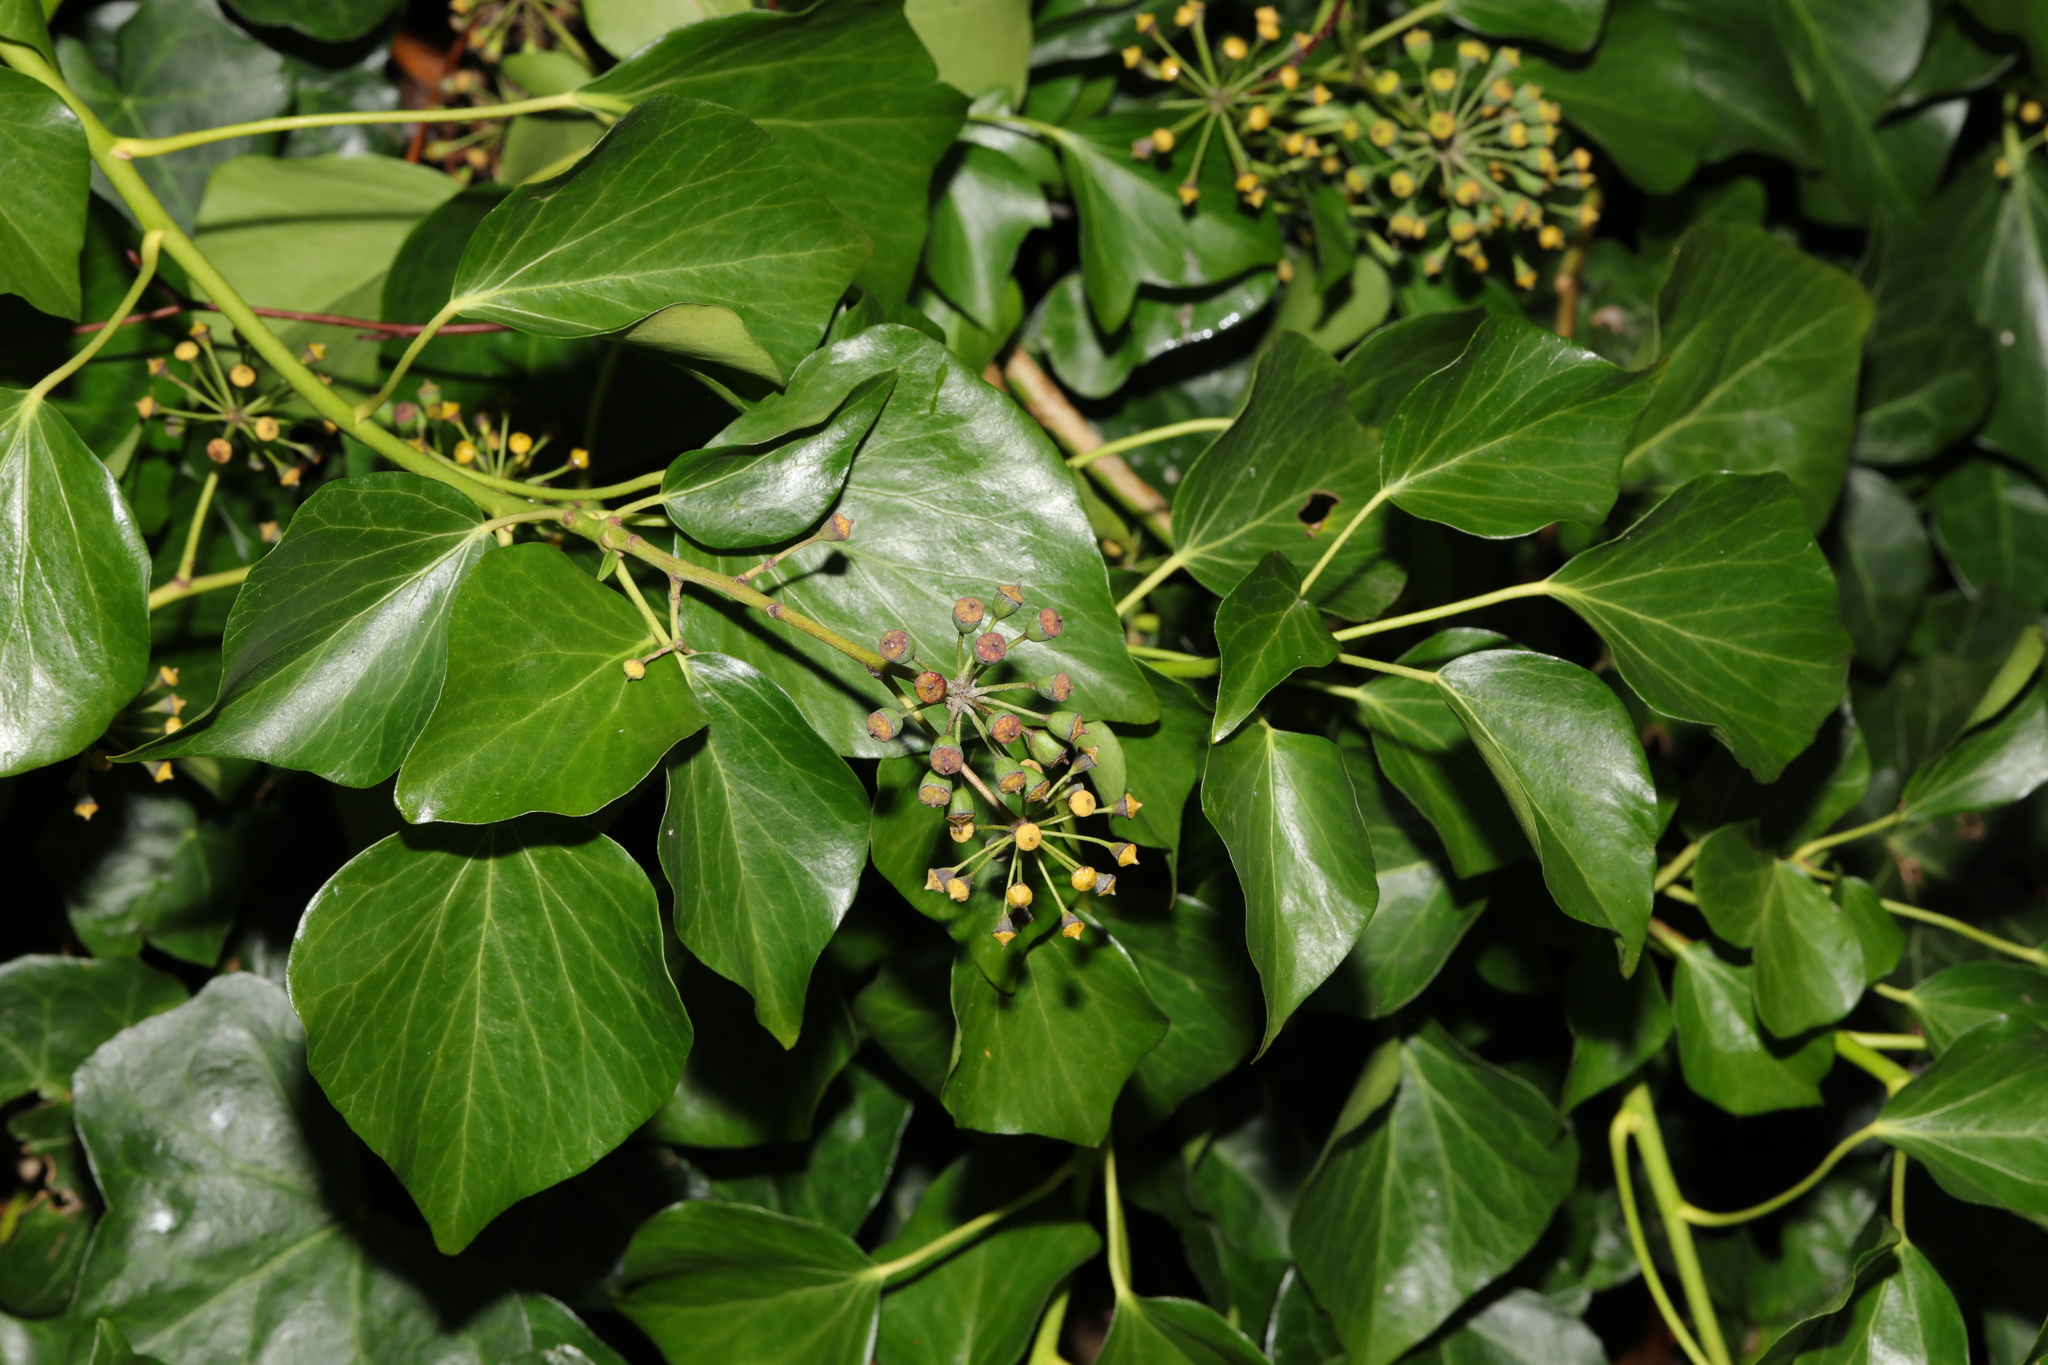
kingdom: Plantae
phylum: Tracheophyta
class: Magnoliopsida
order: Apiales
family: Araliaceae
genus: Hedera
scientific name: Hedera helix
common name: Ivy
